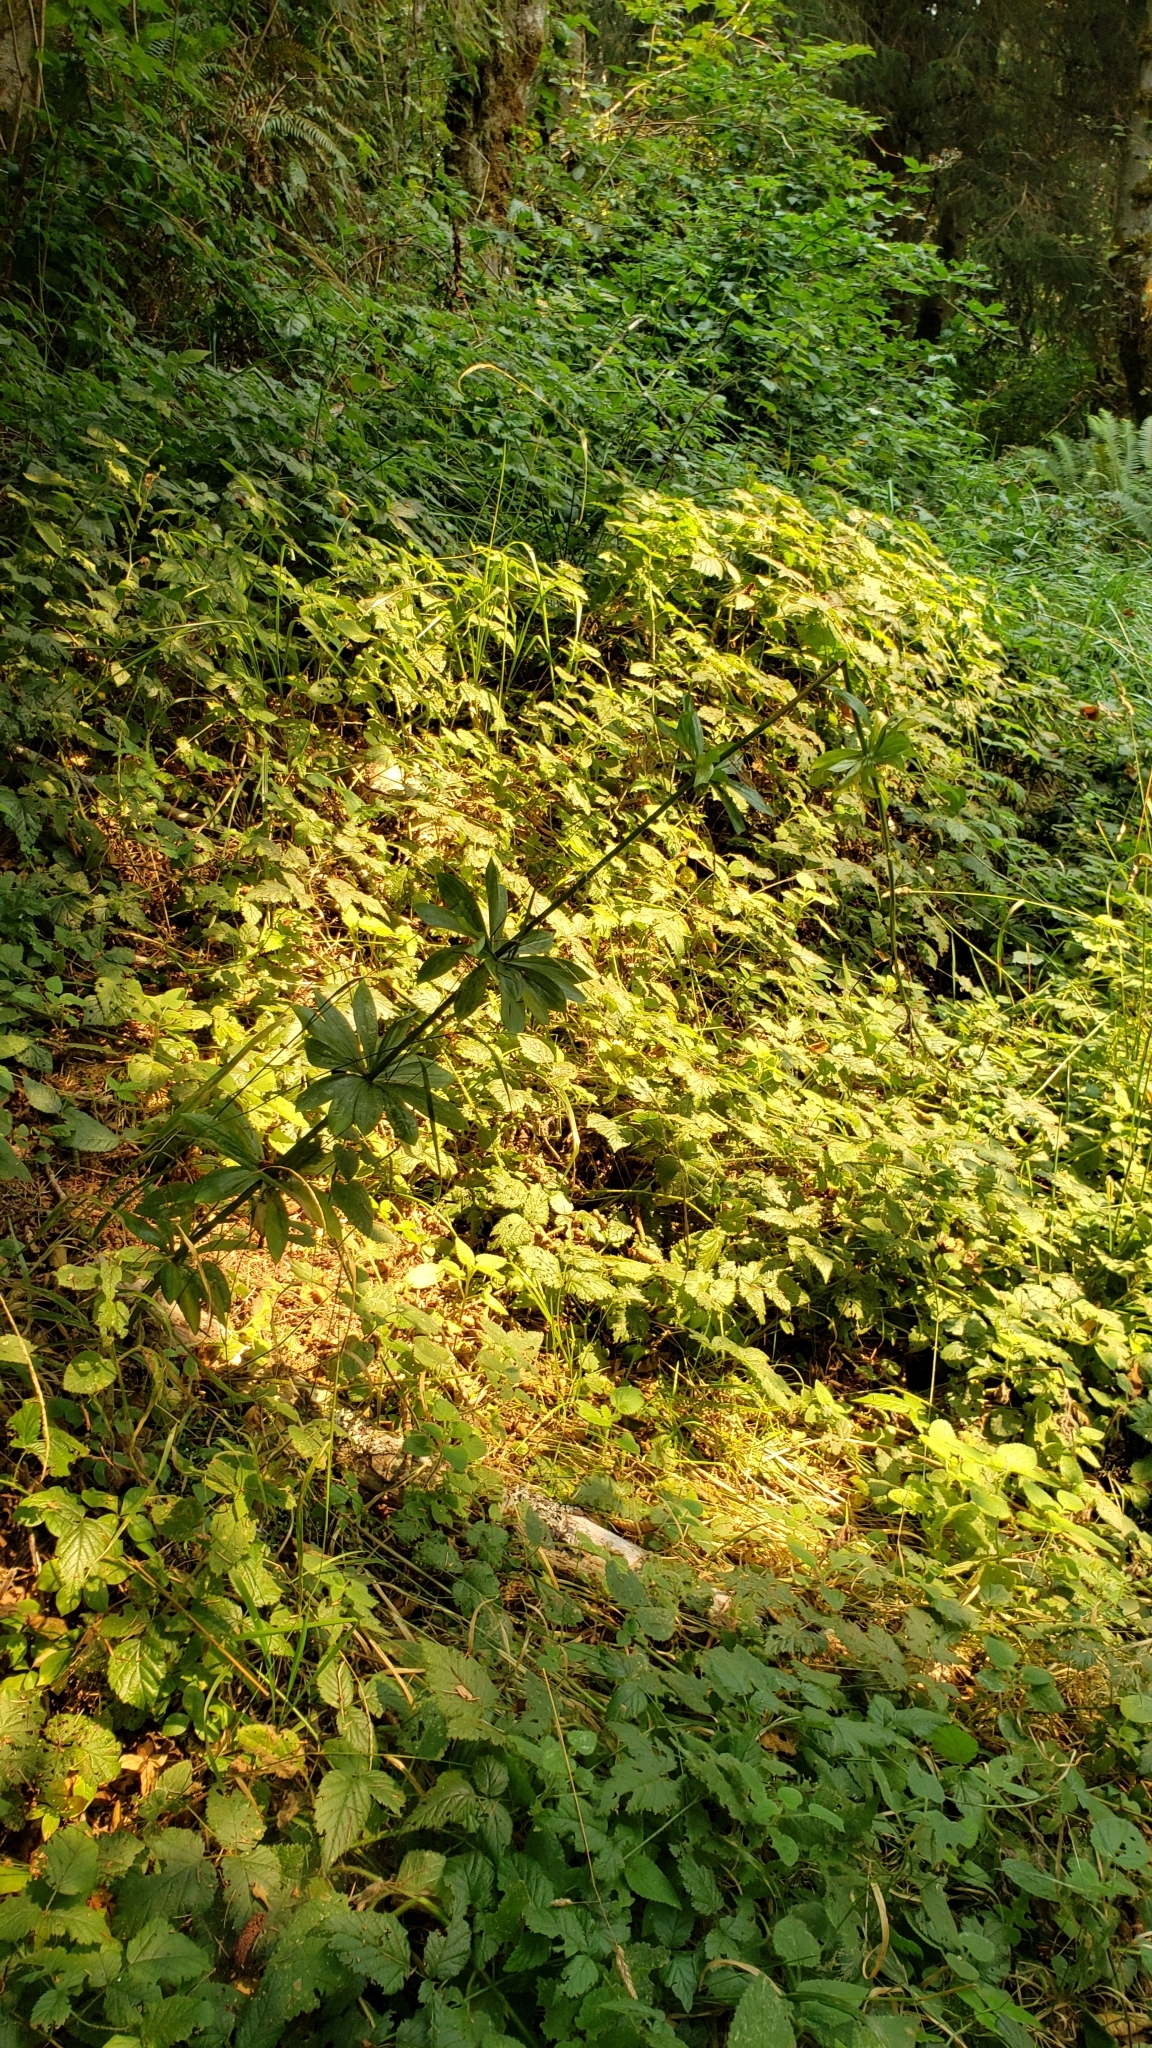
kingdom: Plantae
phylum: Tracheophyta
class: Liliopsida
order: Liliales
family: Liliaceae
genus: Lilium
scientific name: Lilium columbianum
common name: Columbia lily
